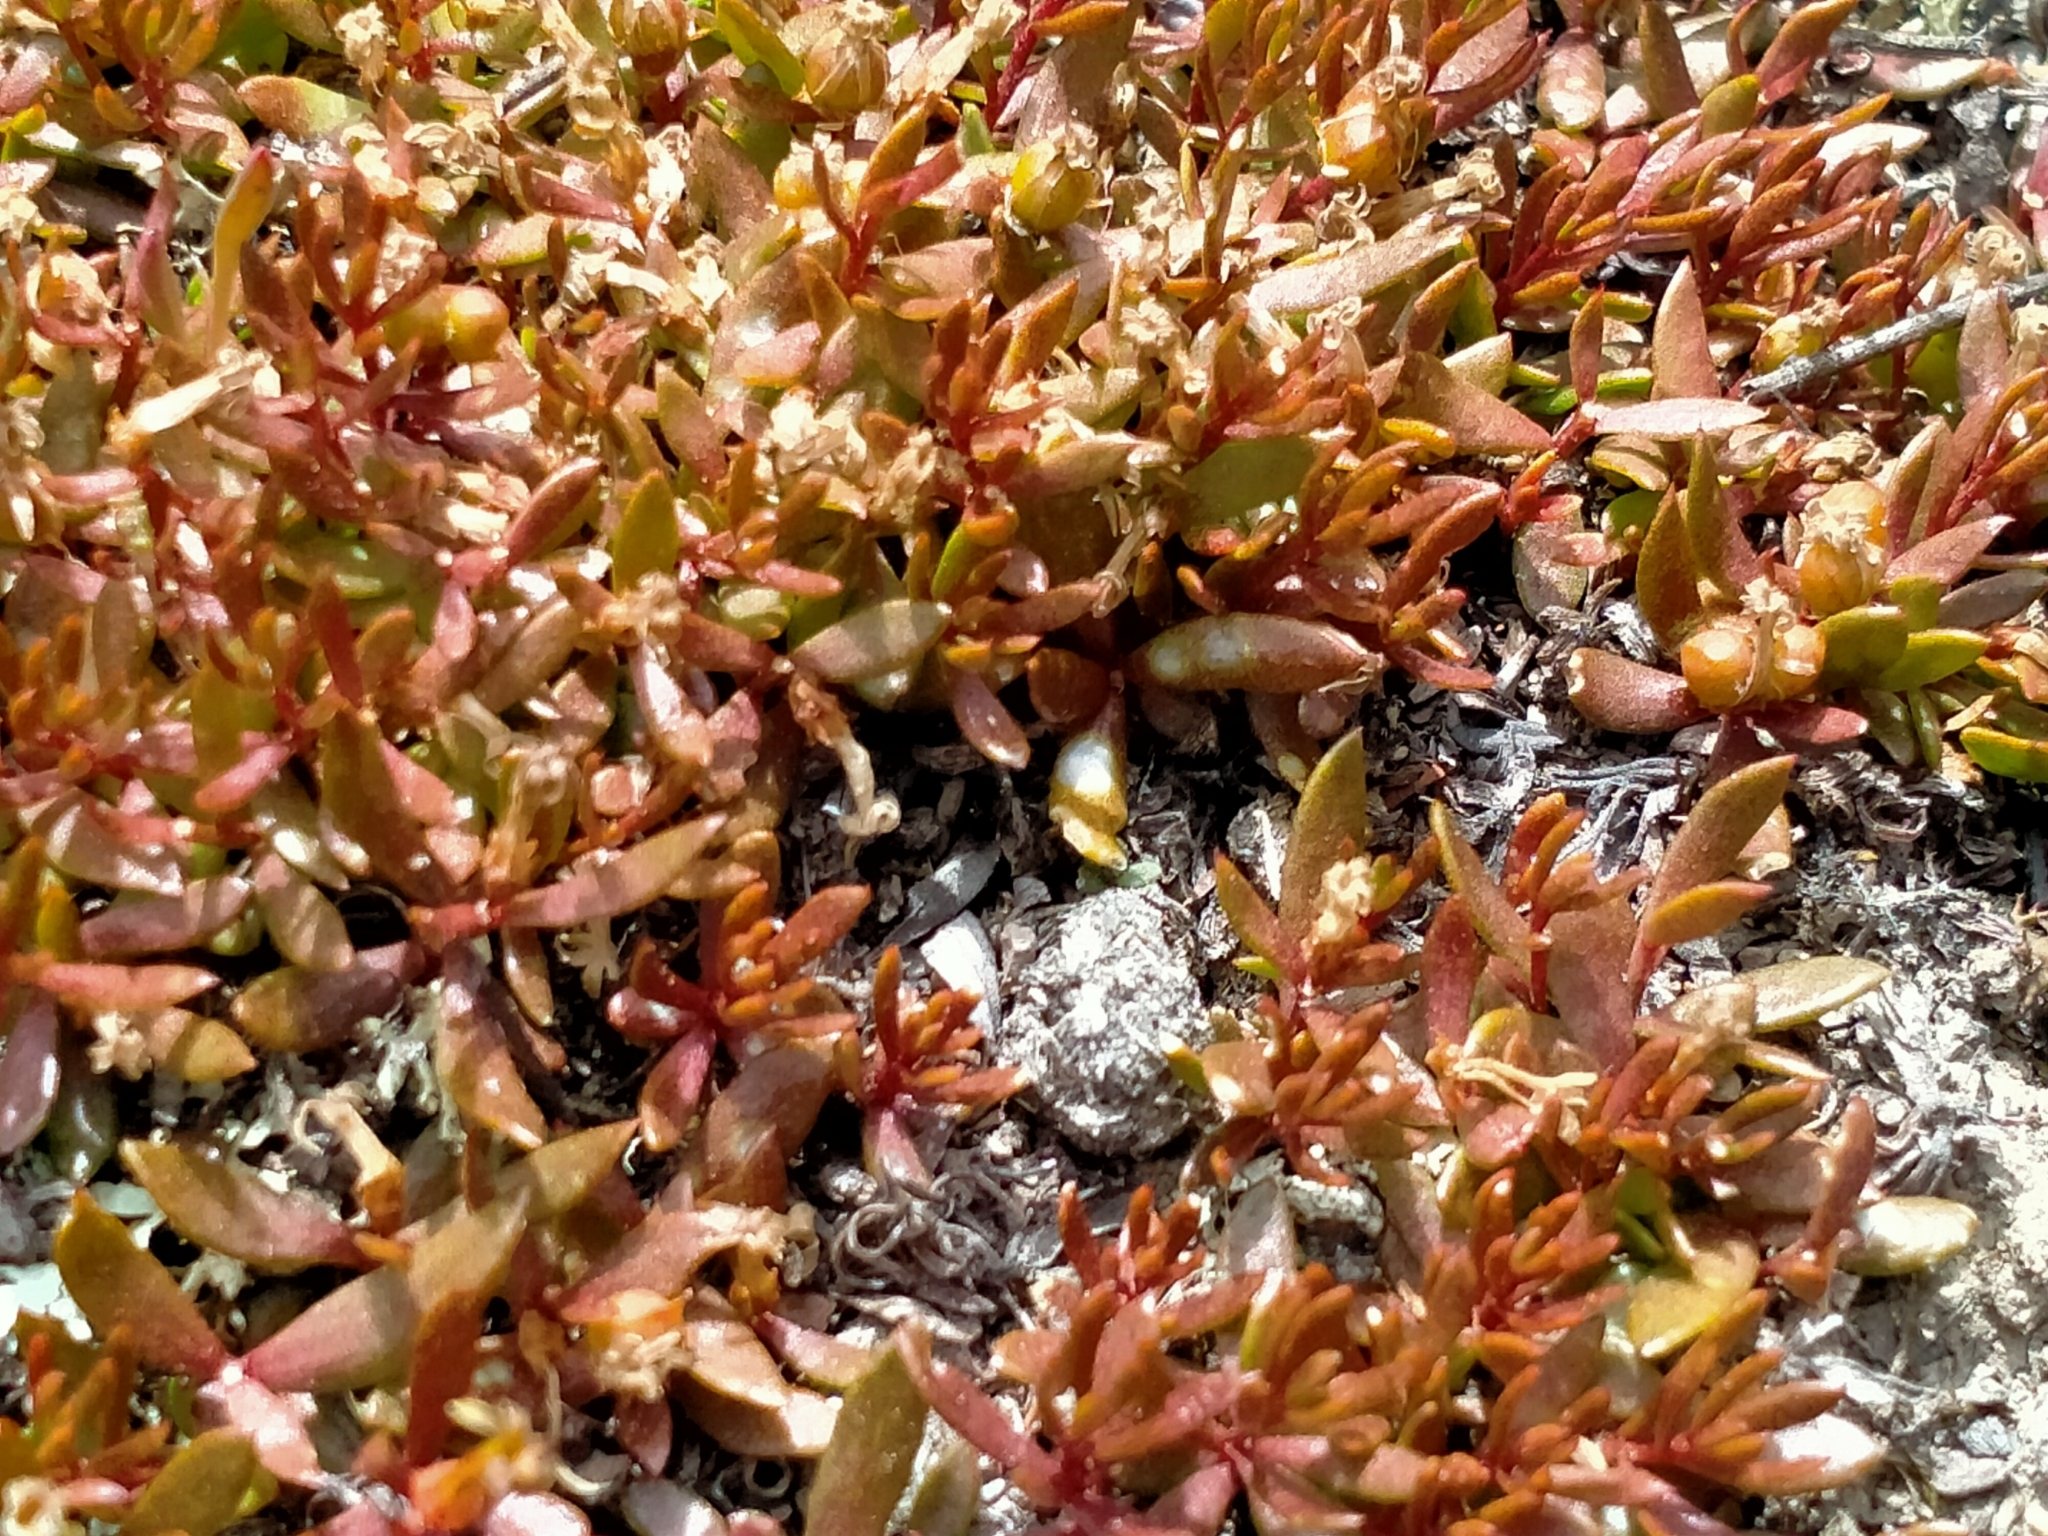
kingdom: Plantae
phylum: Tracheophyta
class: Magnoliopsida
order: Celastrales
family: Celastraceae
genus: Stackhousia
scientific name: Stackhousia minima
